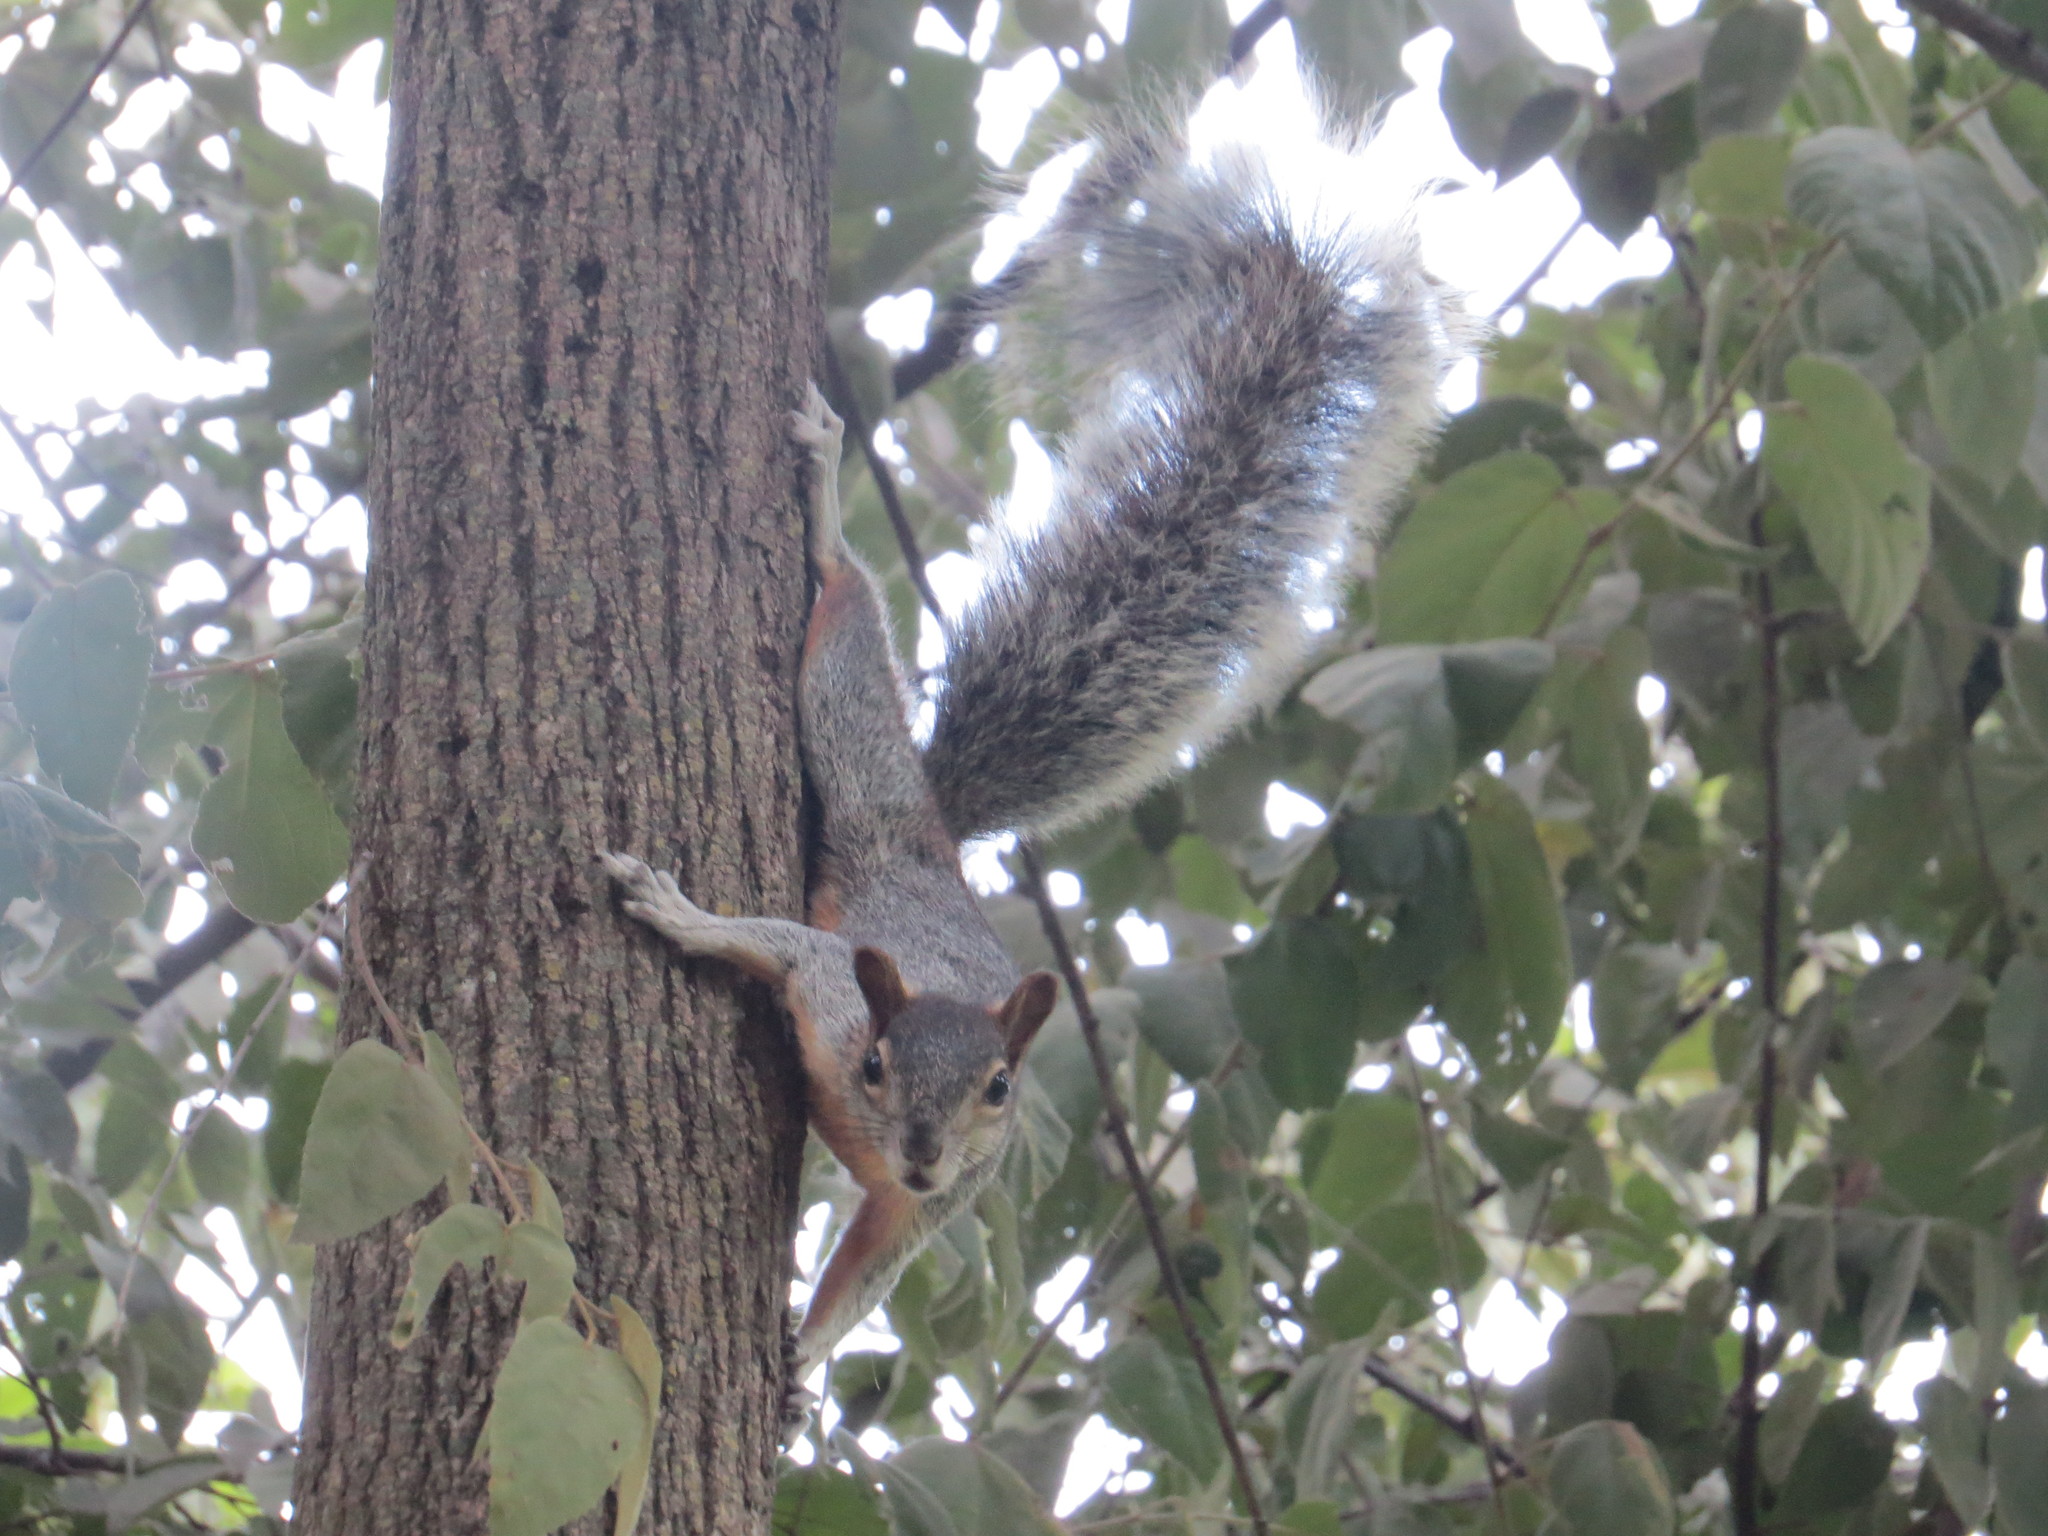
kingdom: Animalia
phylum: Chordata
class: Mammalia
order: Rodentia
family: Sciuridae
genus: Sciurus
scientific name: Sciurus aureogaster
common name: Red-bellied squirrel
